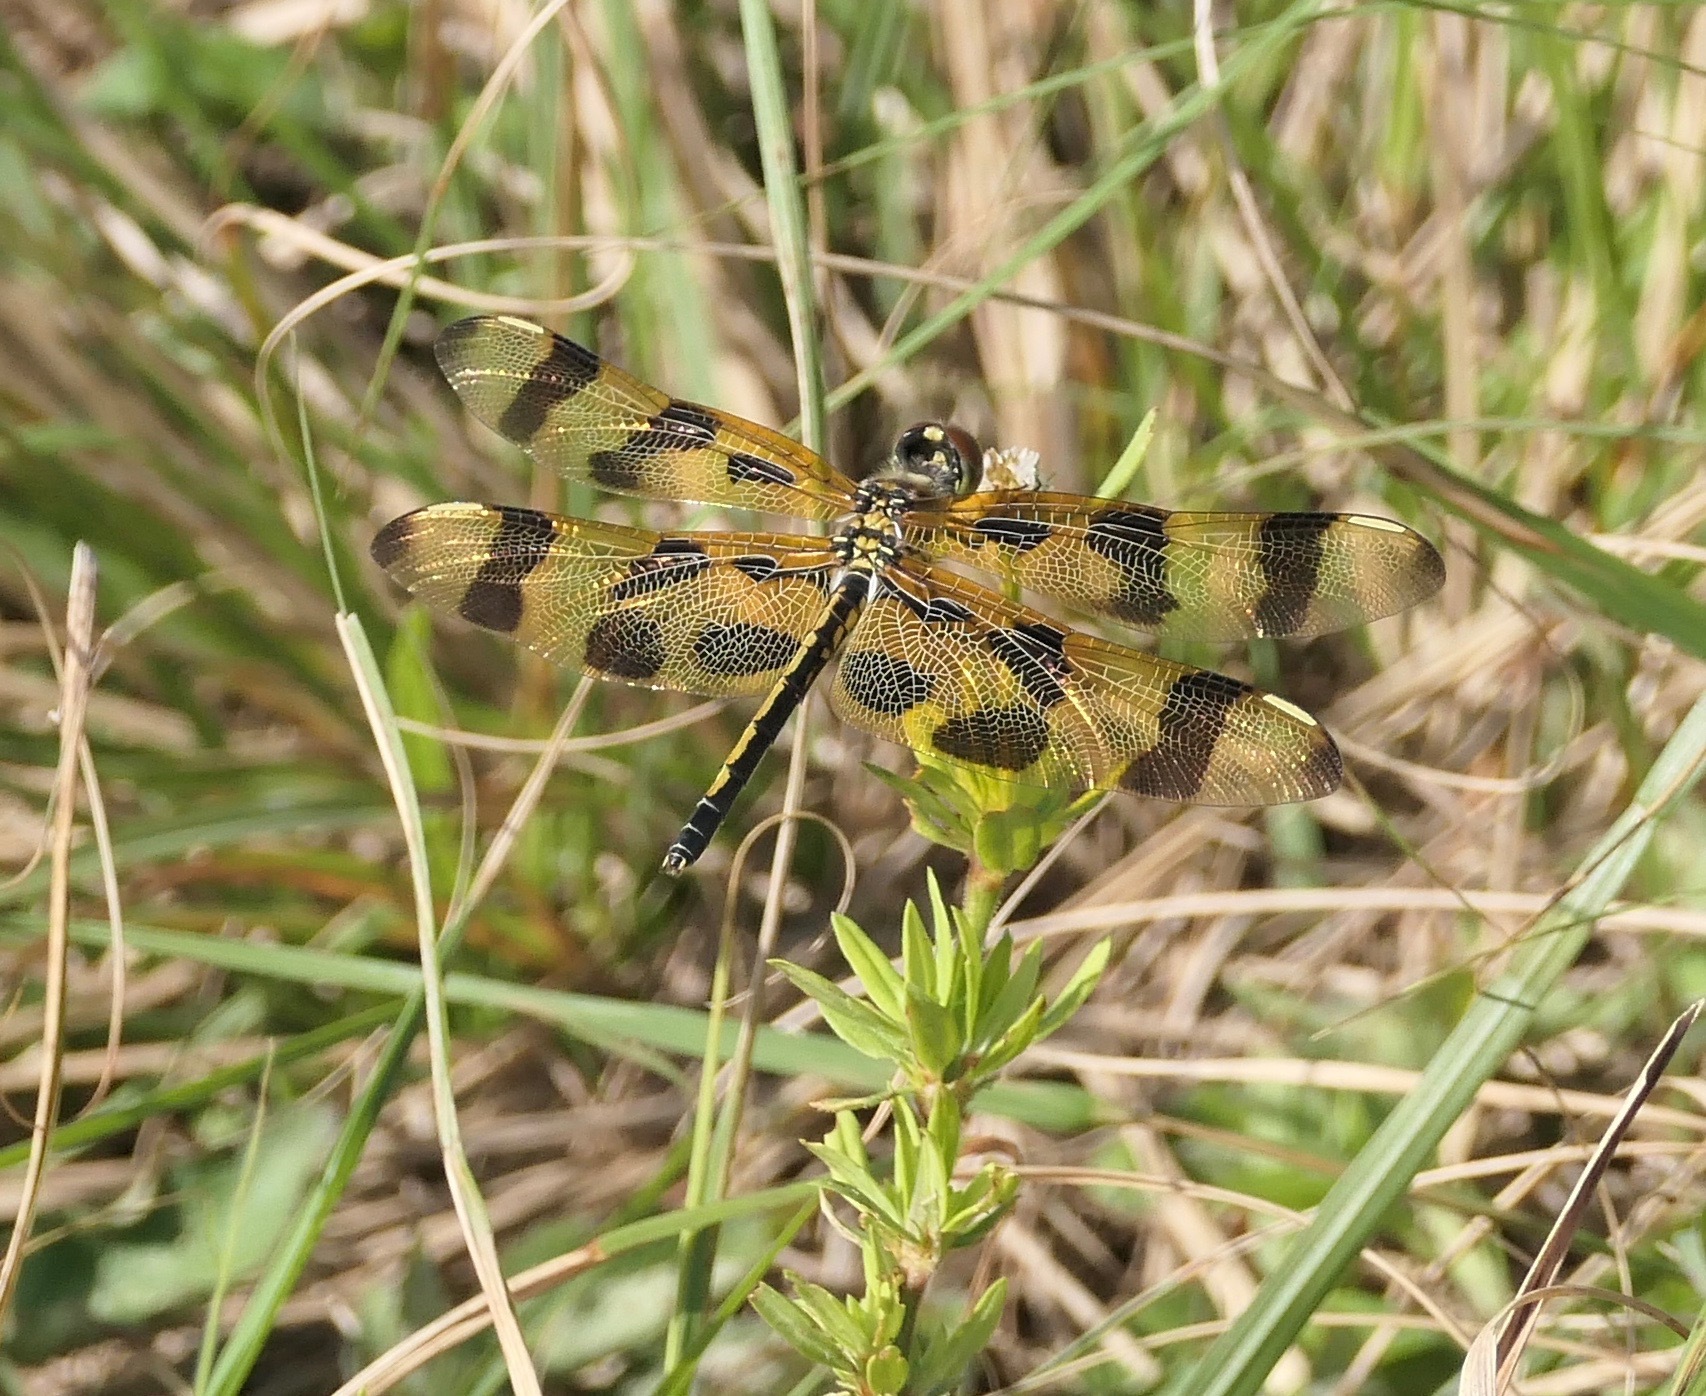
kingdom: Animalia
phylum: Arthropoda
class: Insecta
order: Odonata
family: Libellulidae
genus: Celithemis
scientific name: Celithemis eponina
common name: Halloween pennant
